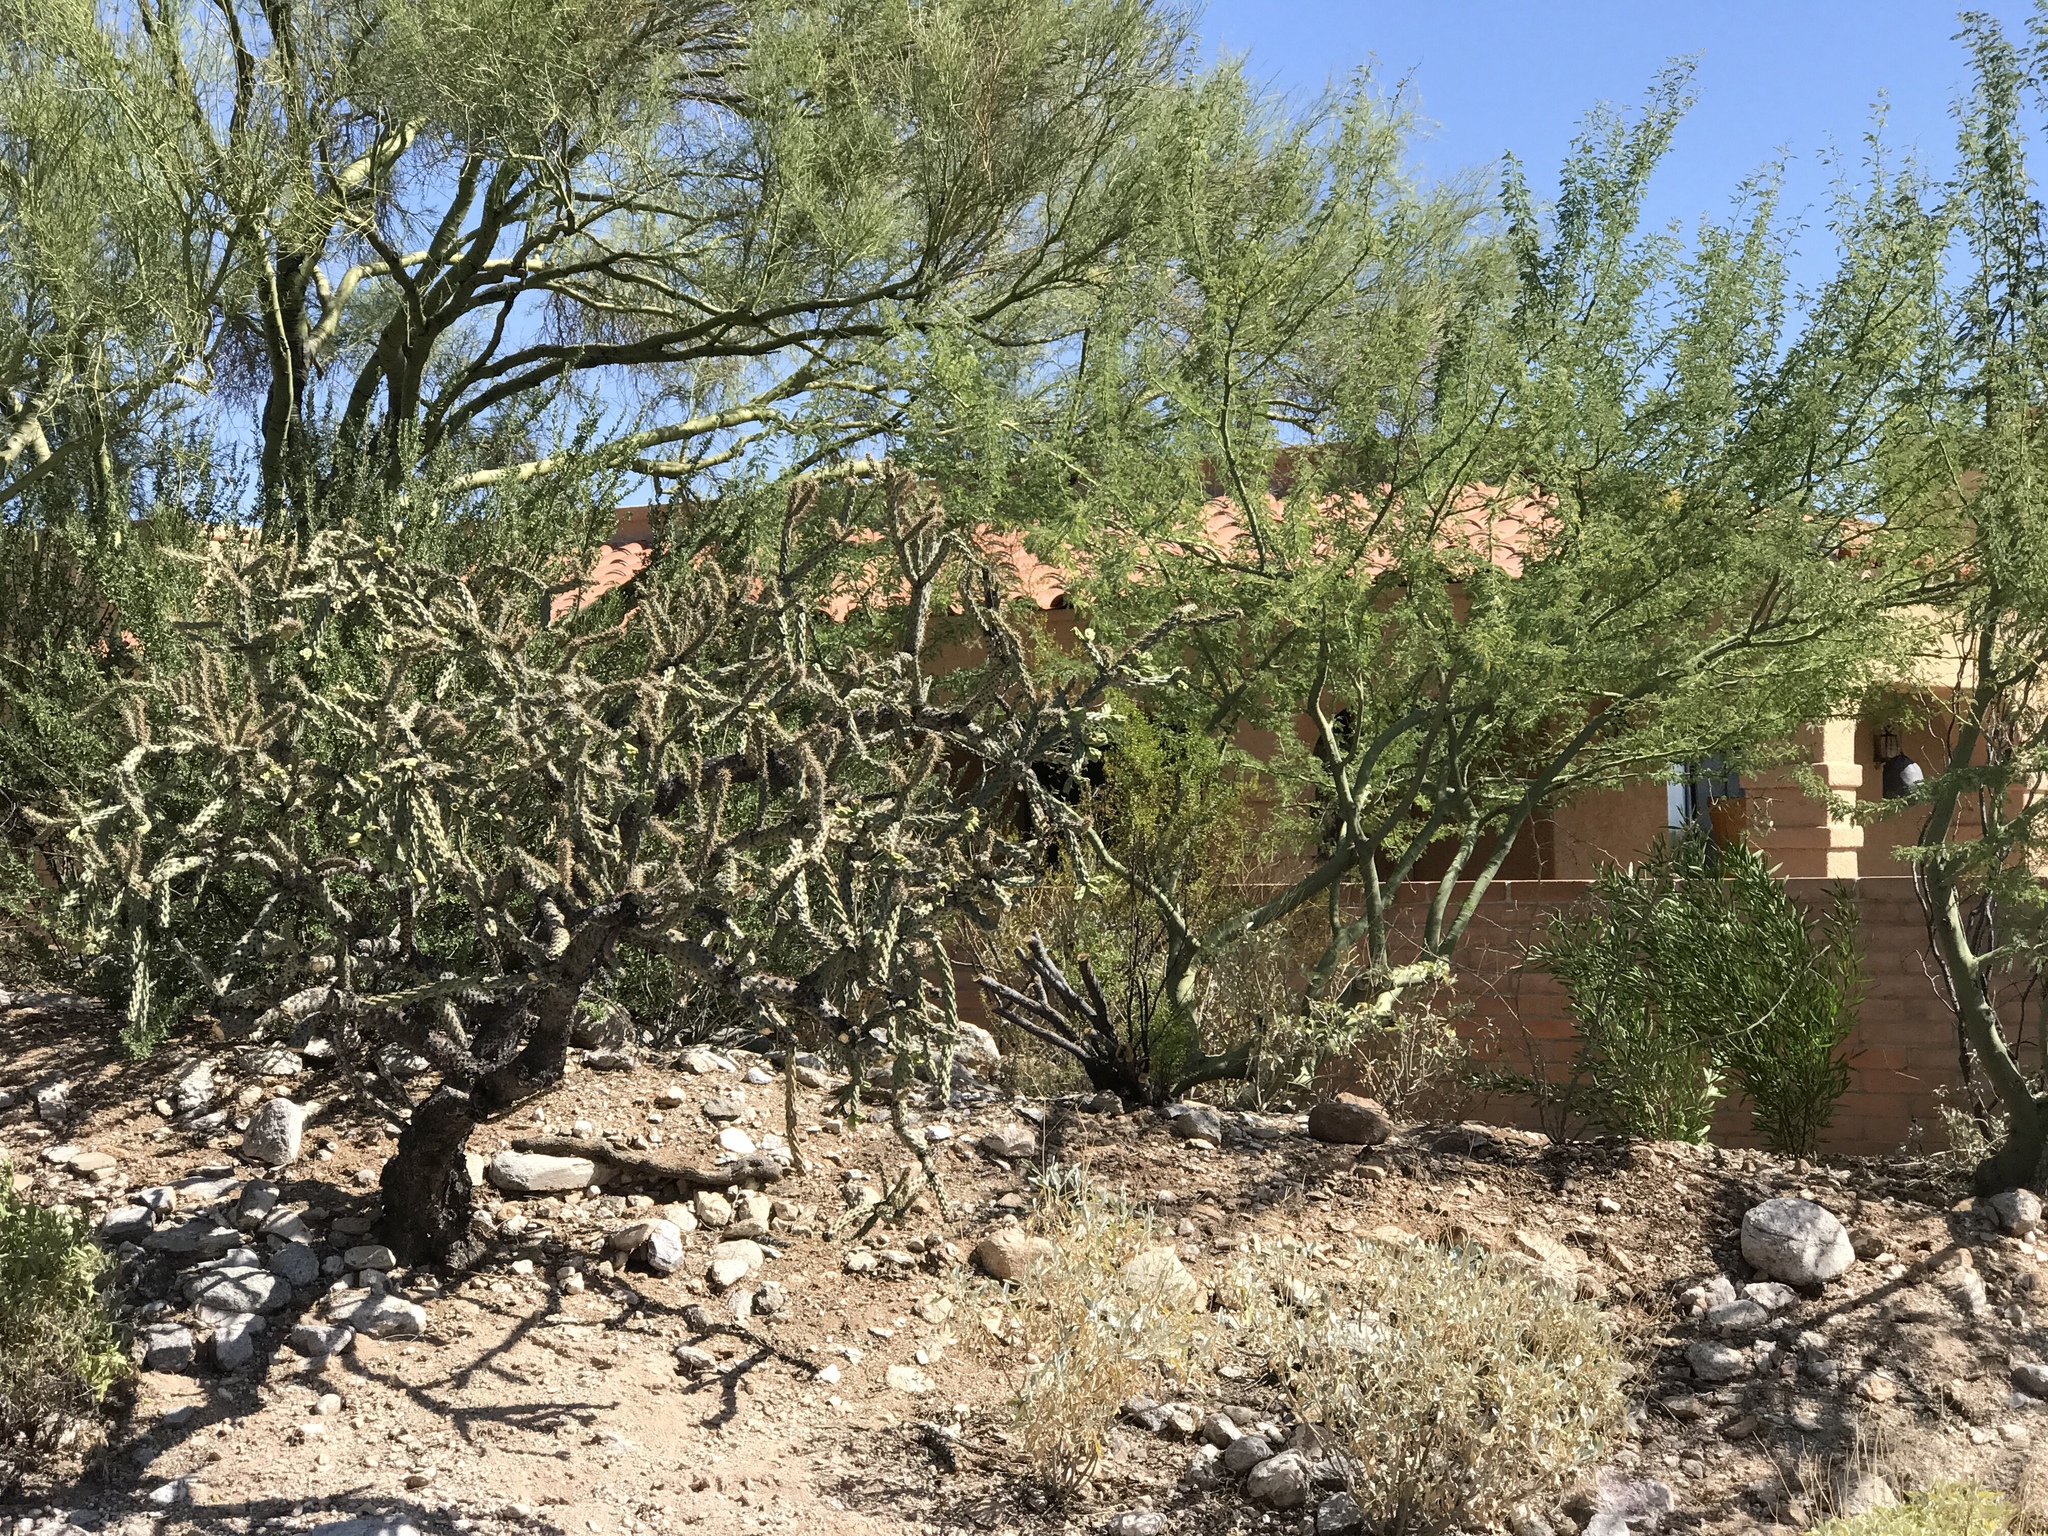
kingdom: Plantae
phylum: Tracheophyta
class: Magnoliopsida
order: Caryophyllales
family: Cactaceae
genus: Cylindropuntia
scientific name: Cylindropuntia thurberi
